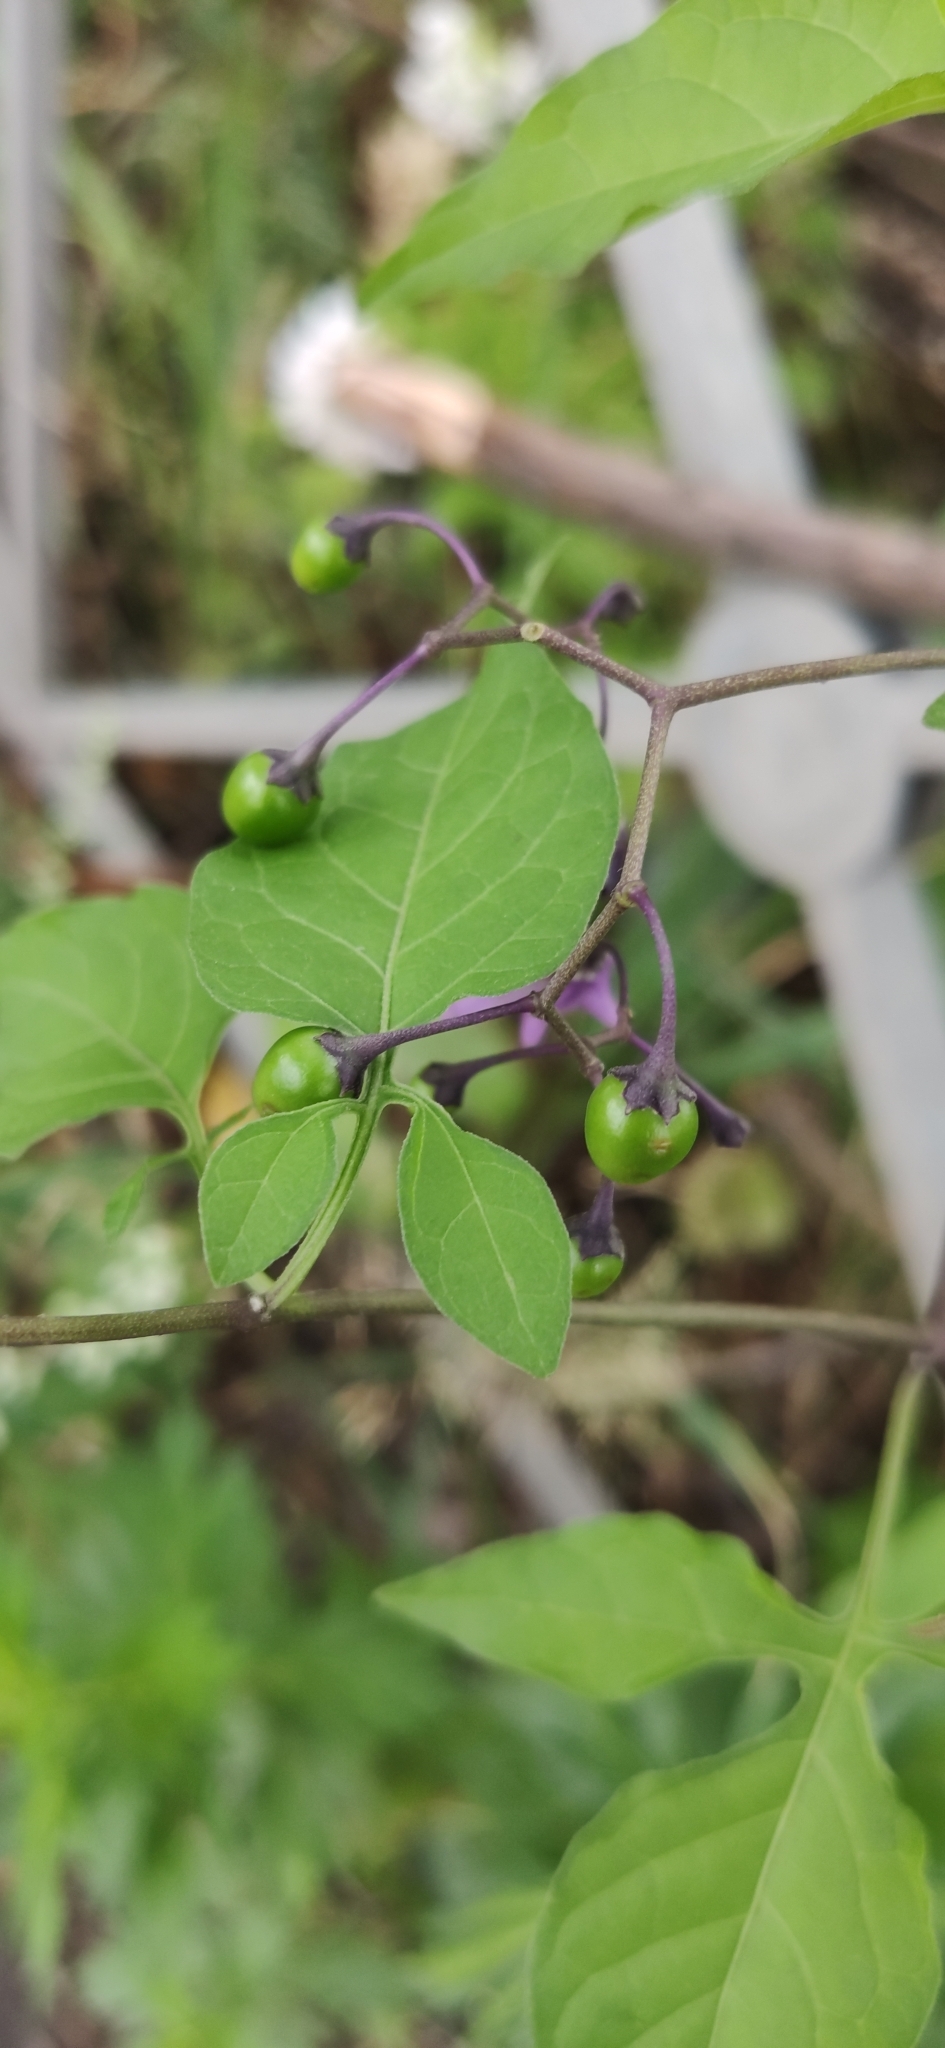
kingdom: Plantae
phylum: Tracheophyta
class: Magnoliopsida
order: Solanales
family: Solanaceae
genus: Solanum
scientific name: Solanum dulcamara
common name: Climbing nightshade
